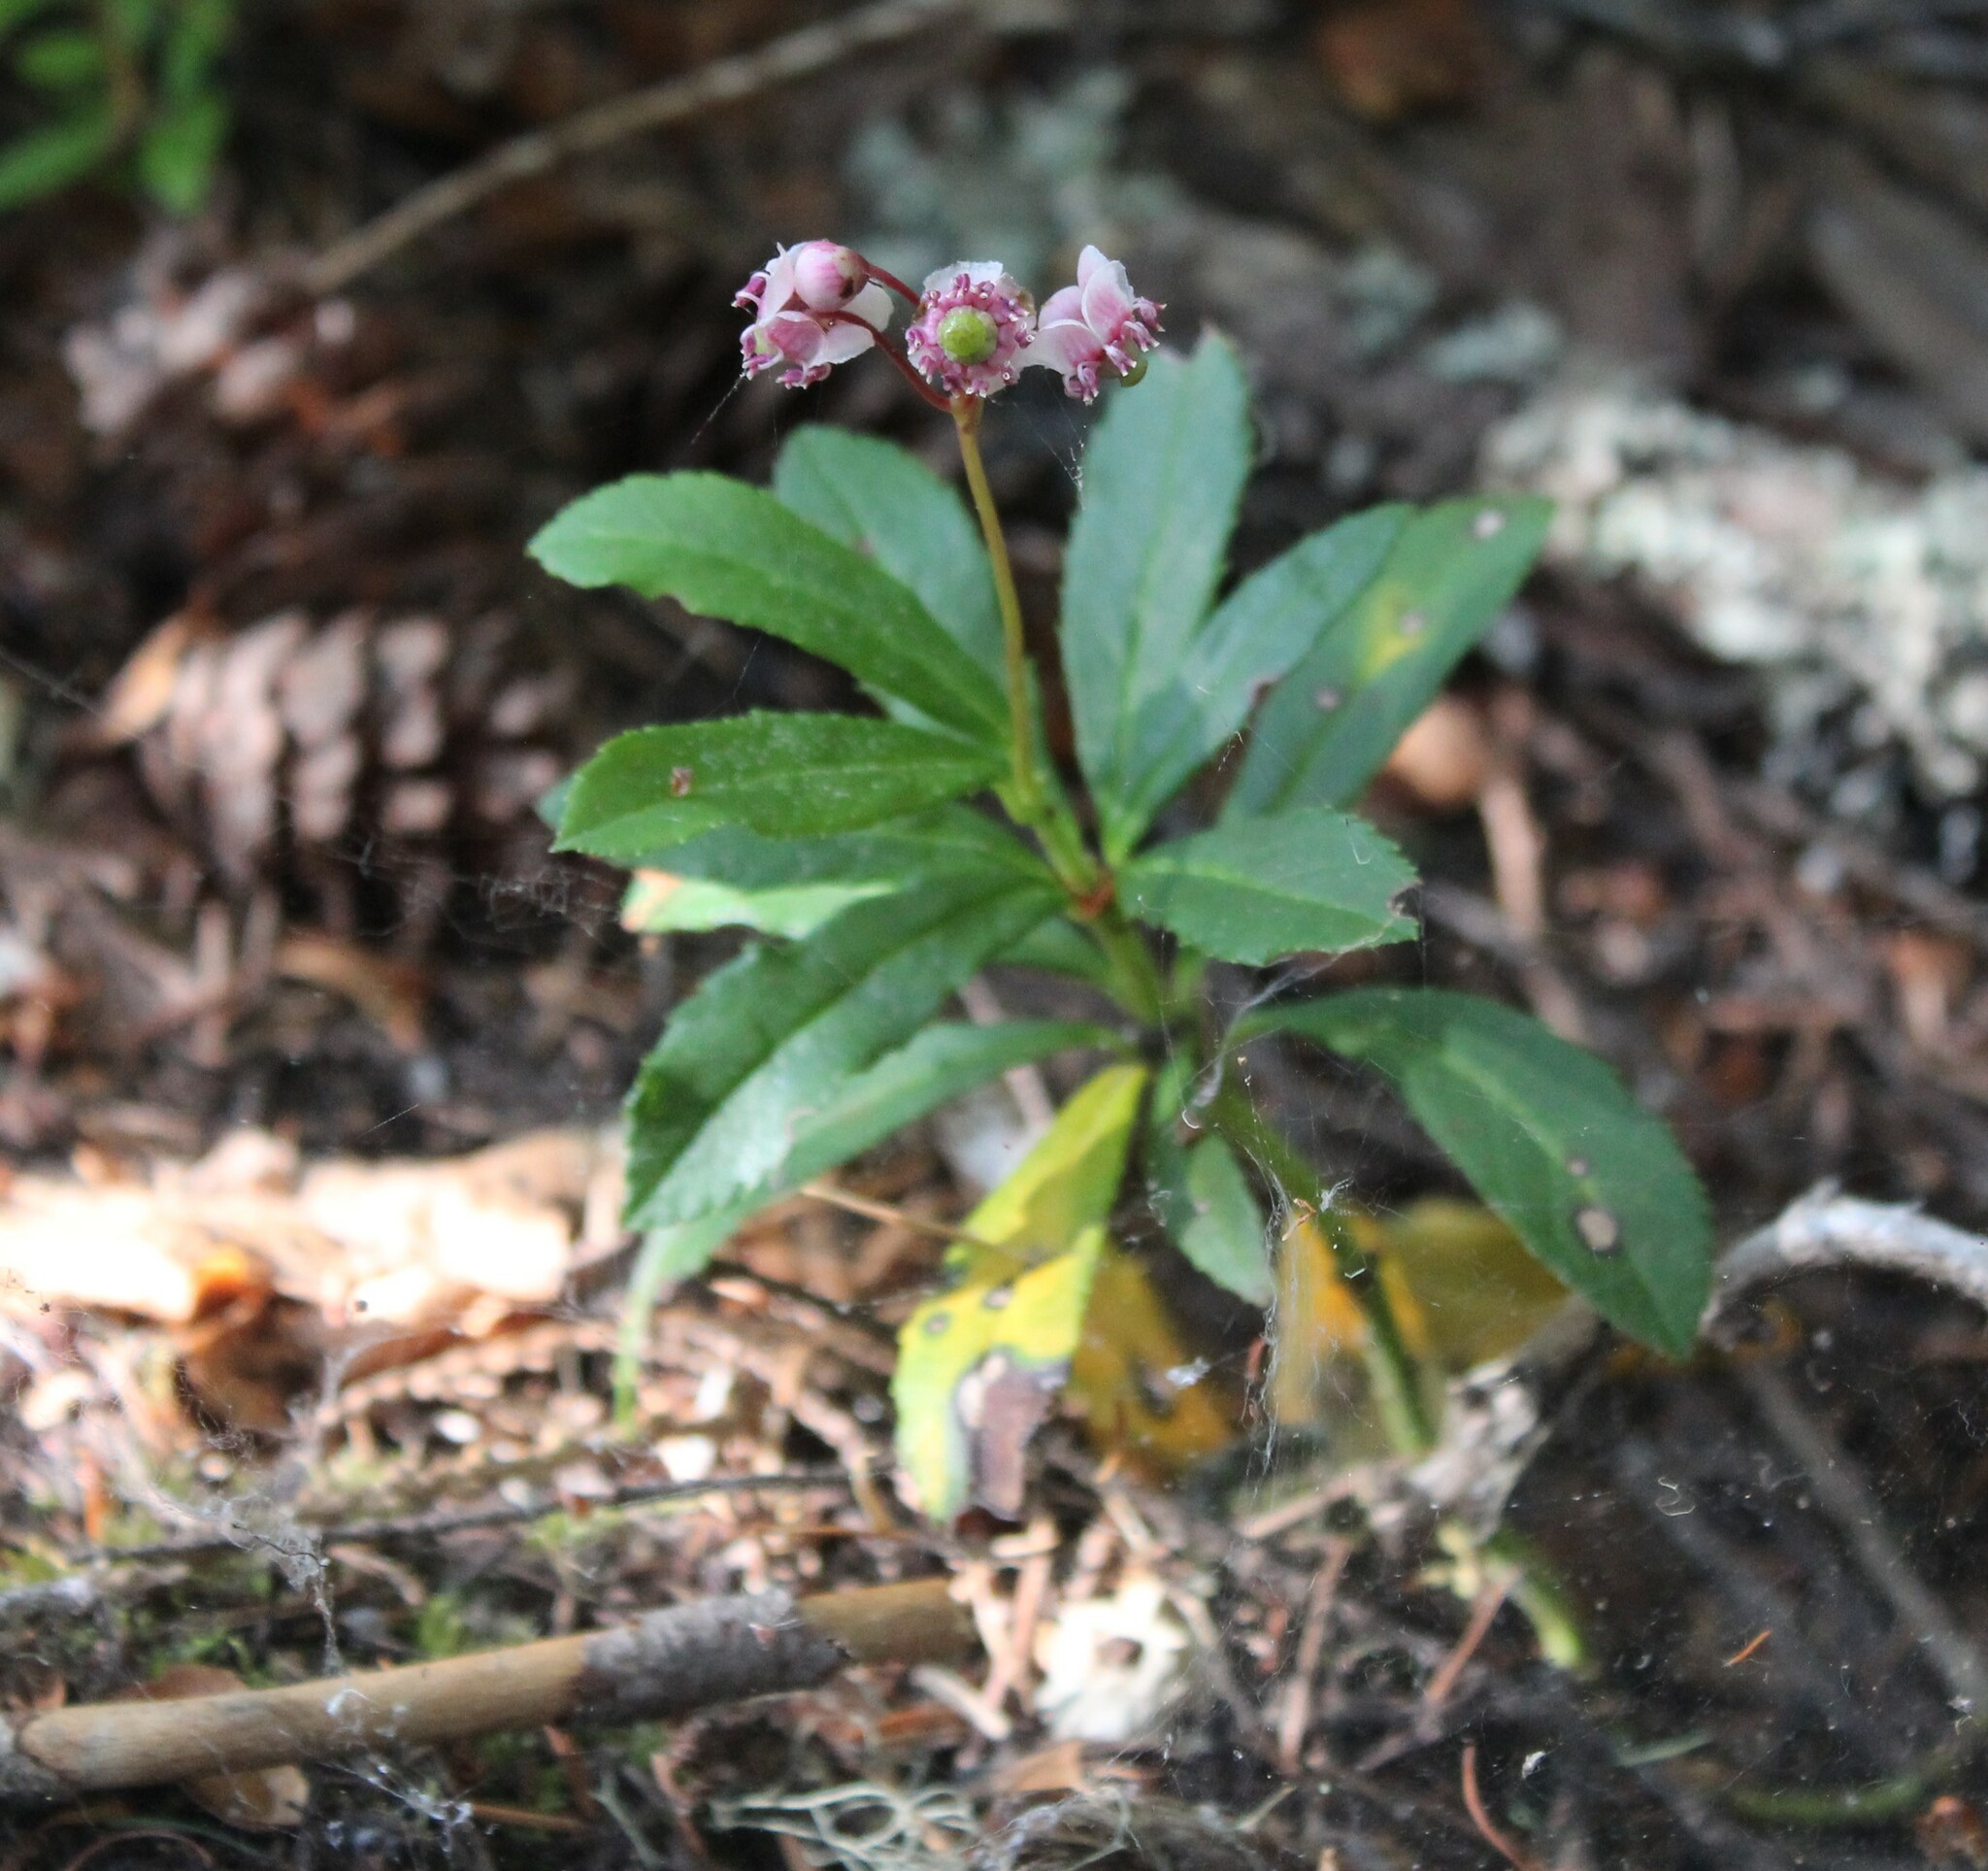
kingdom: Plantae
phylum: Tracheophyta
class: Magnoliopsida
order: Ericales
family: Ericaceae
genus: Chimaphila
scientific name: Chimaphila umbellata
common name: Pipsissewa
